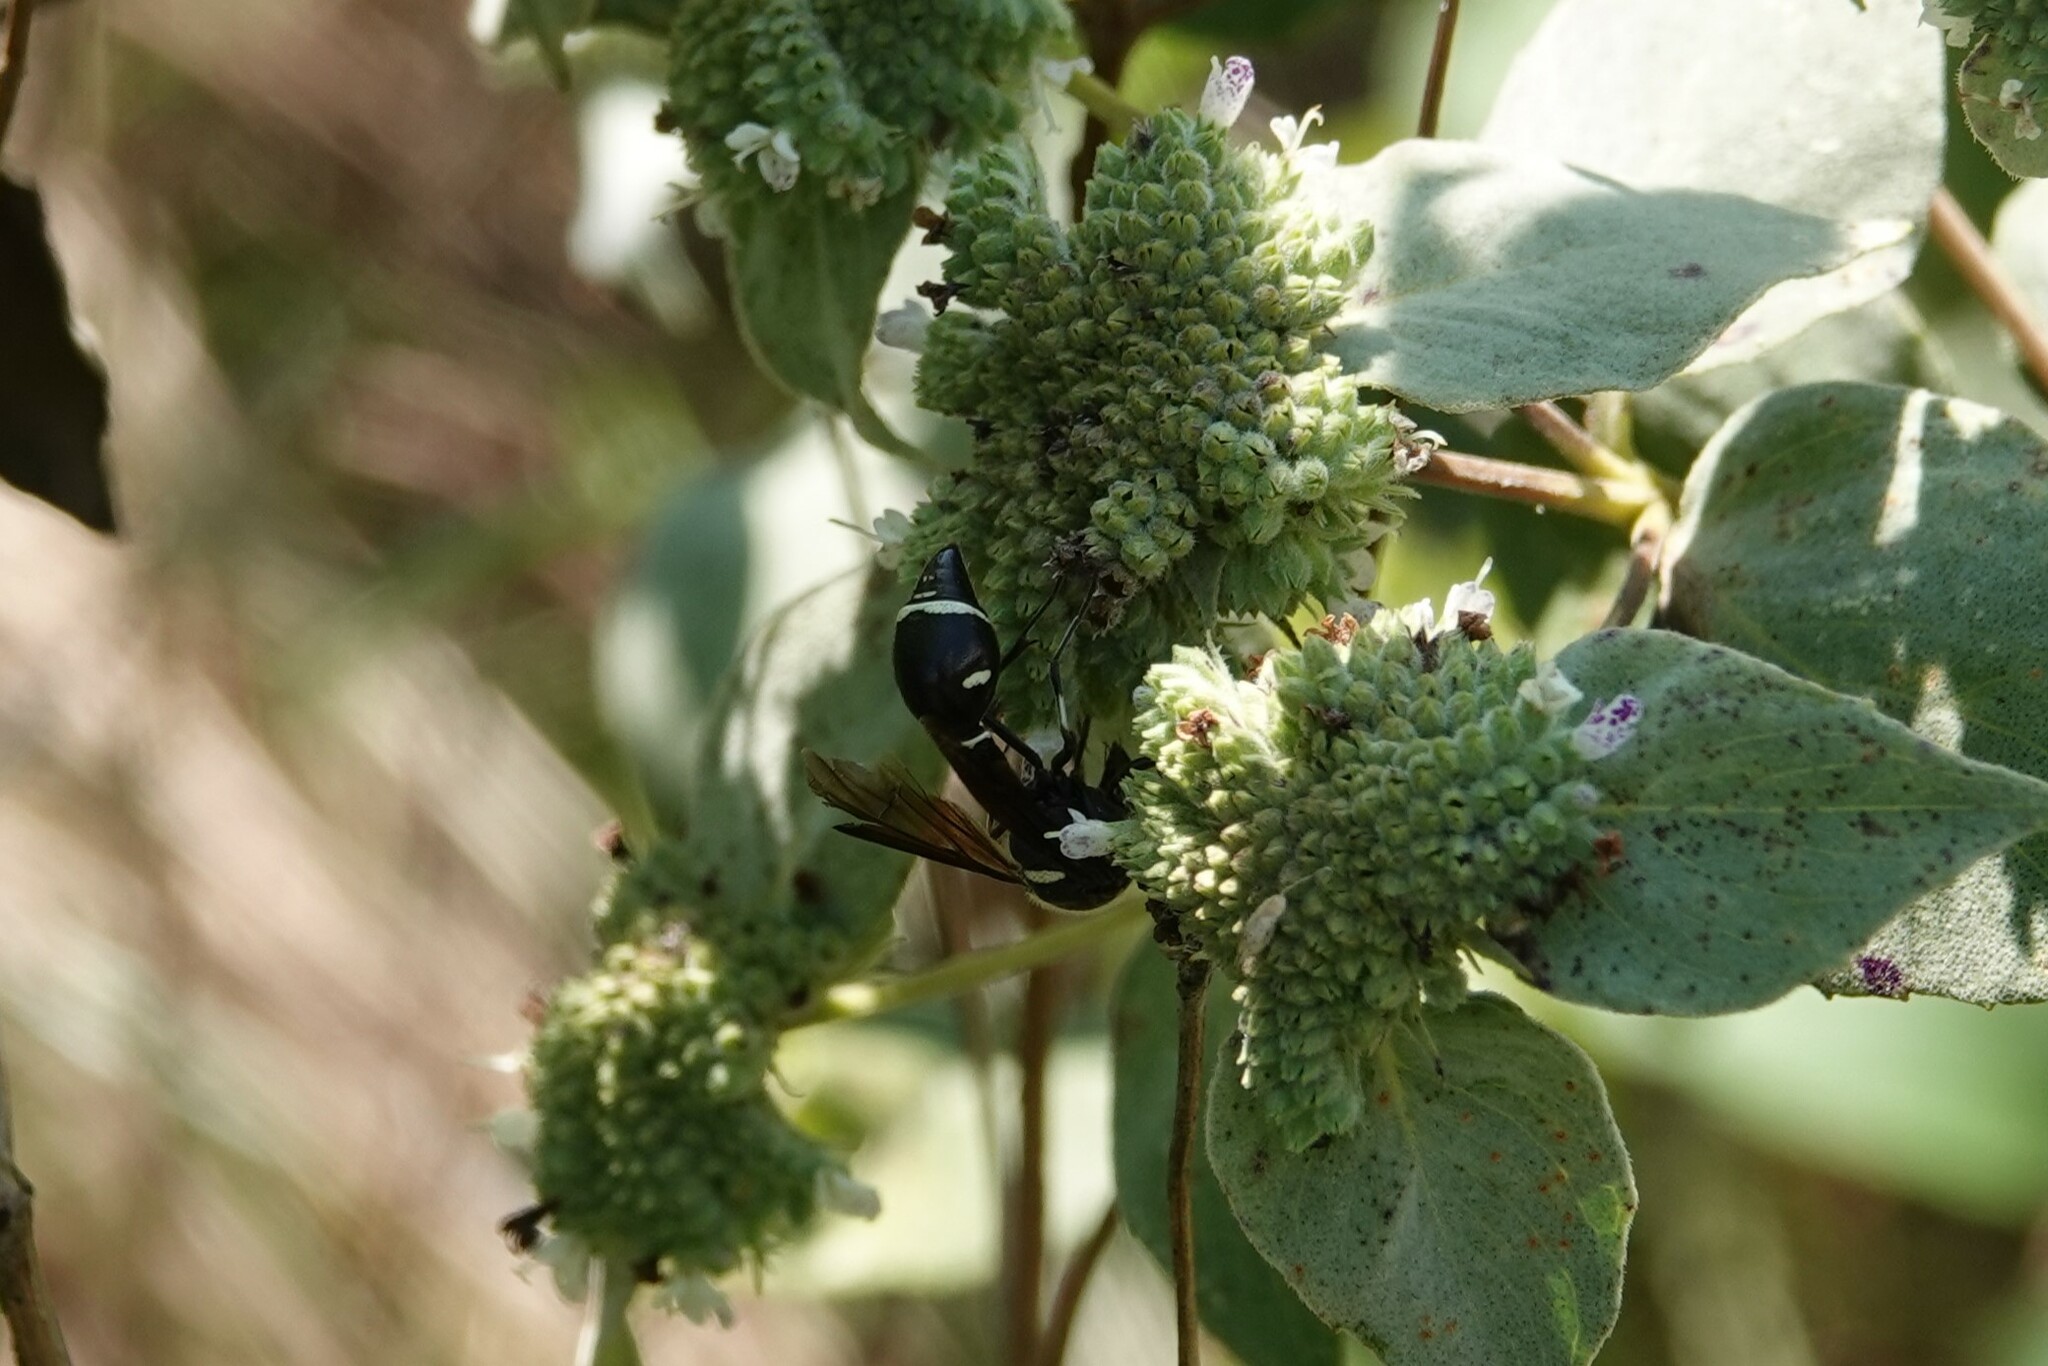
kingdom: Animalia
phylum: Arthropoda
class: Insecta
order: Hymenoptera
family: Vespidae
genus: Eumenes
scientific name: Eumenes fraternus
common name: Fraternal potter wasp
